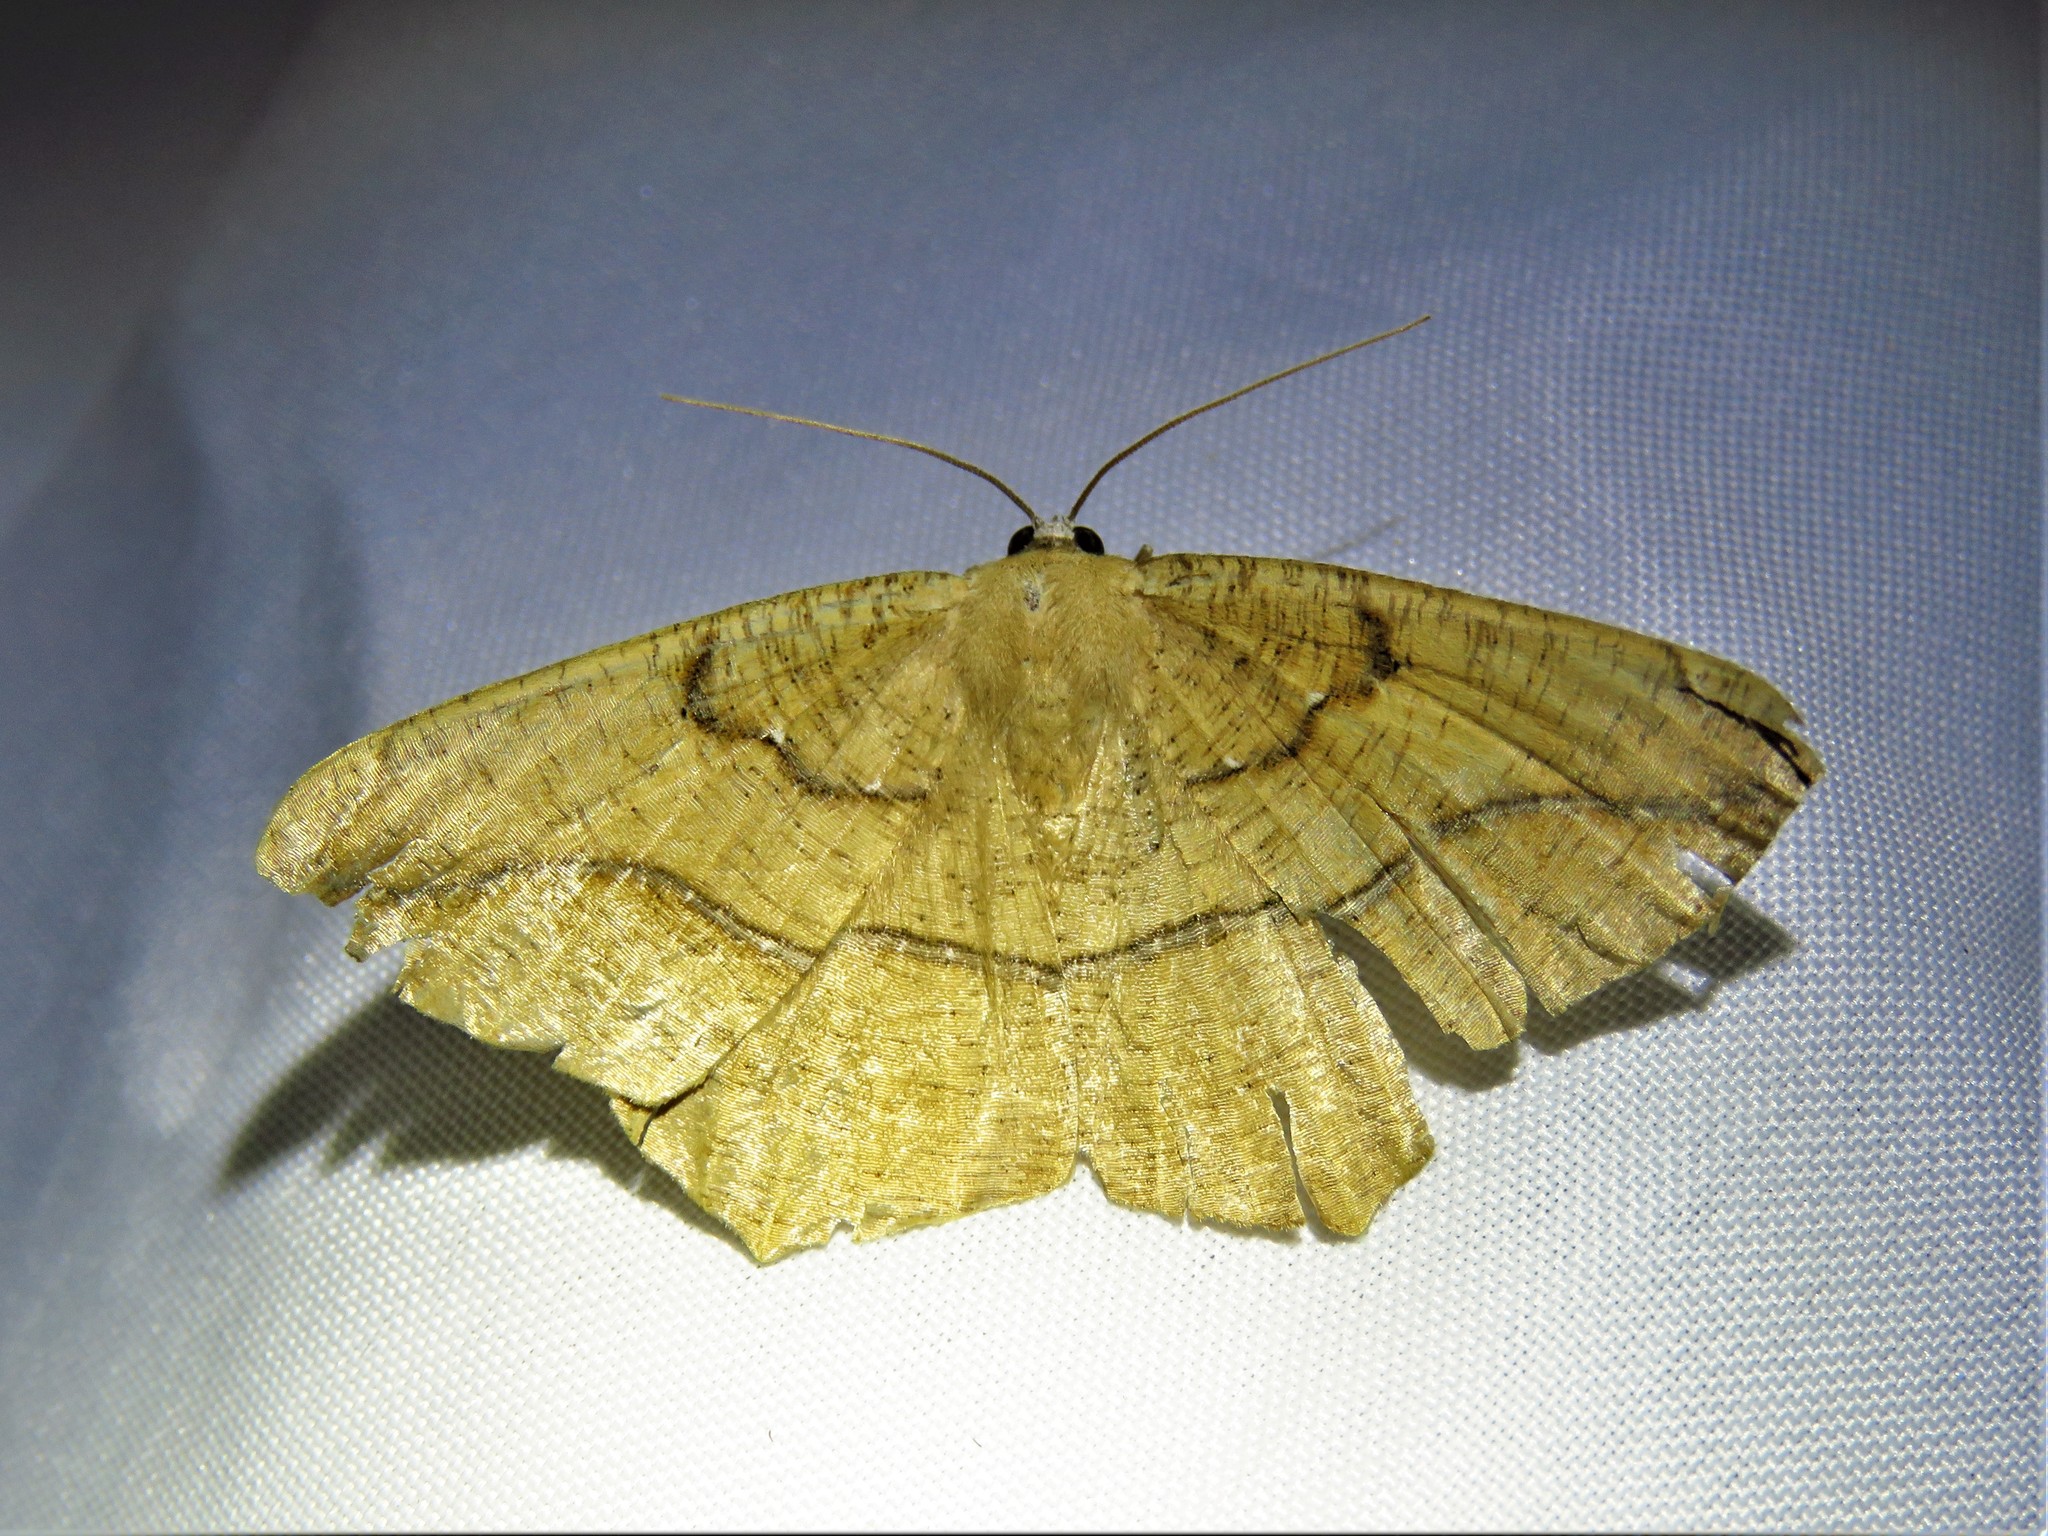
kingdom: Animalia
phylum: Arthropoda
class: Insecta
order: Lepidoptera
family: Geometridae
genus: Prochoerodes
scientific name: Prochoerodes lineola
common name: Large maple spanworm
